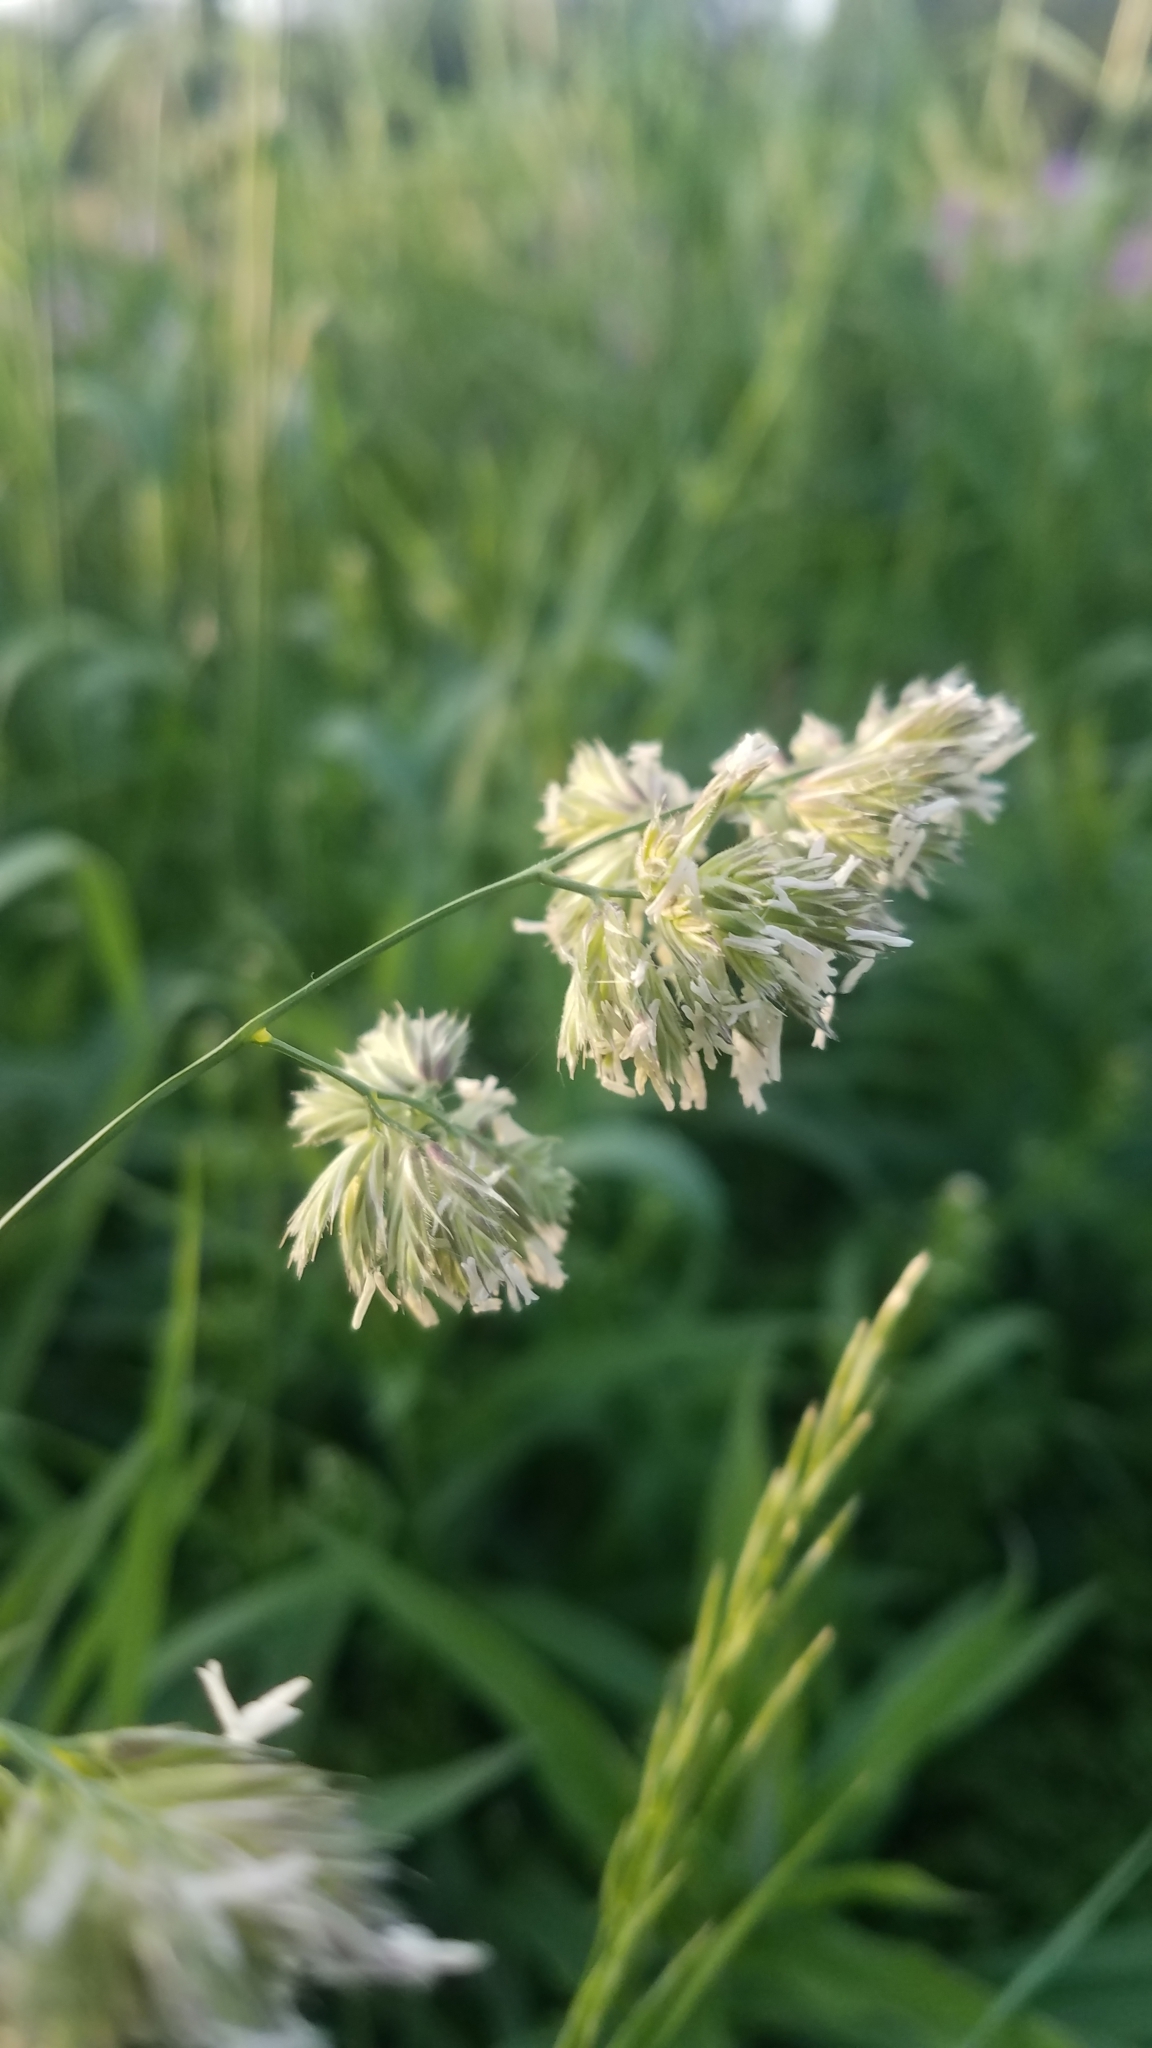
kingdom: Plantae
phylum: Tracheophyta
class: Liliopsida
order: Poales
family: Poaceae
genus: Dactylis
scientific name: Dactylis glomerata
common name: Orchardgrass
